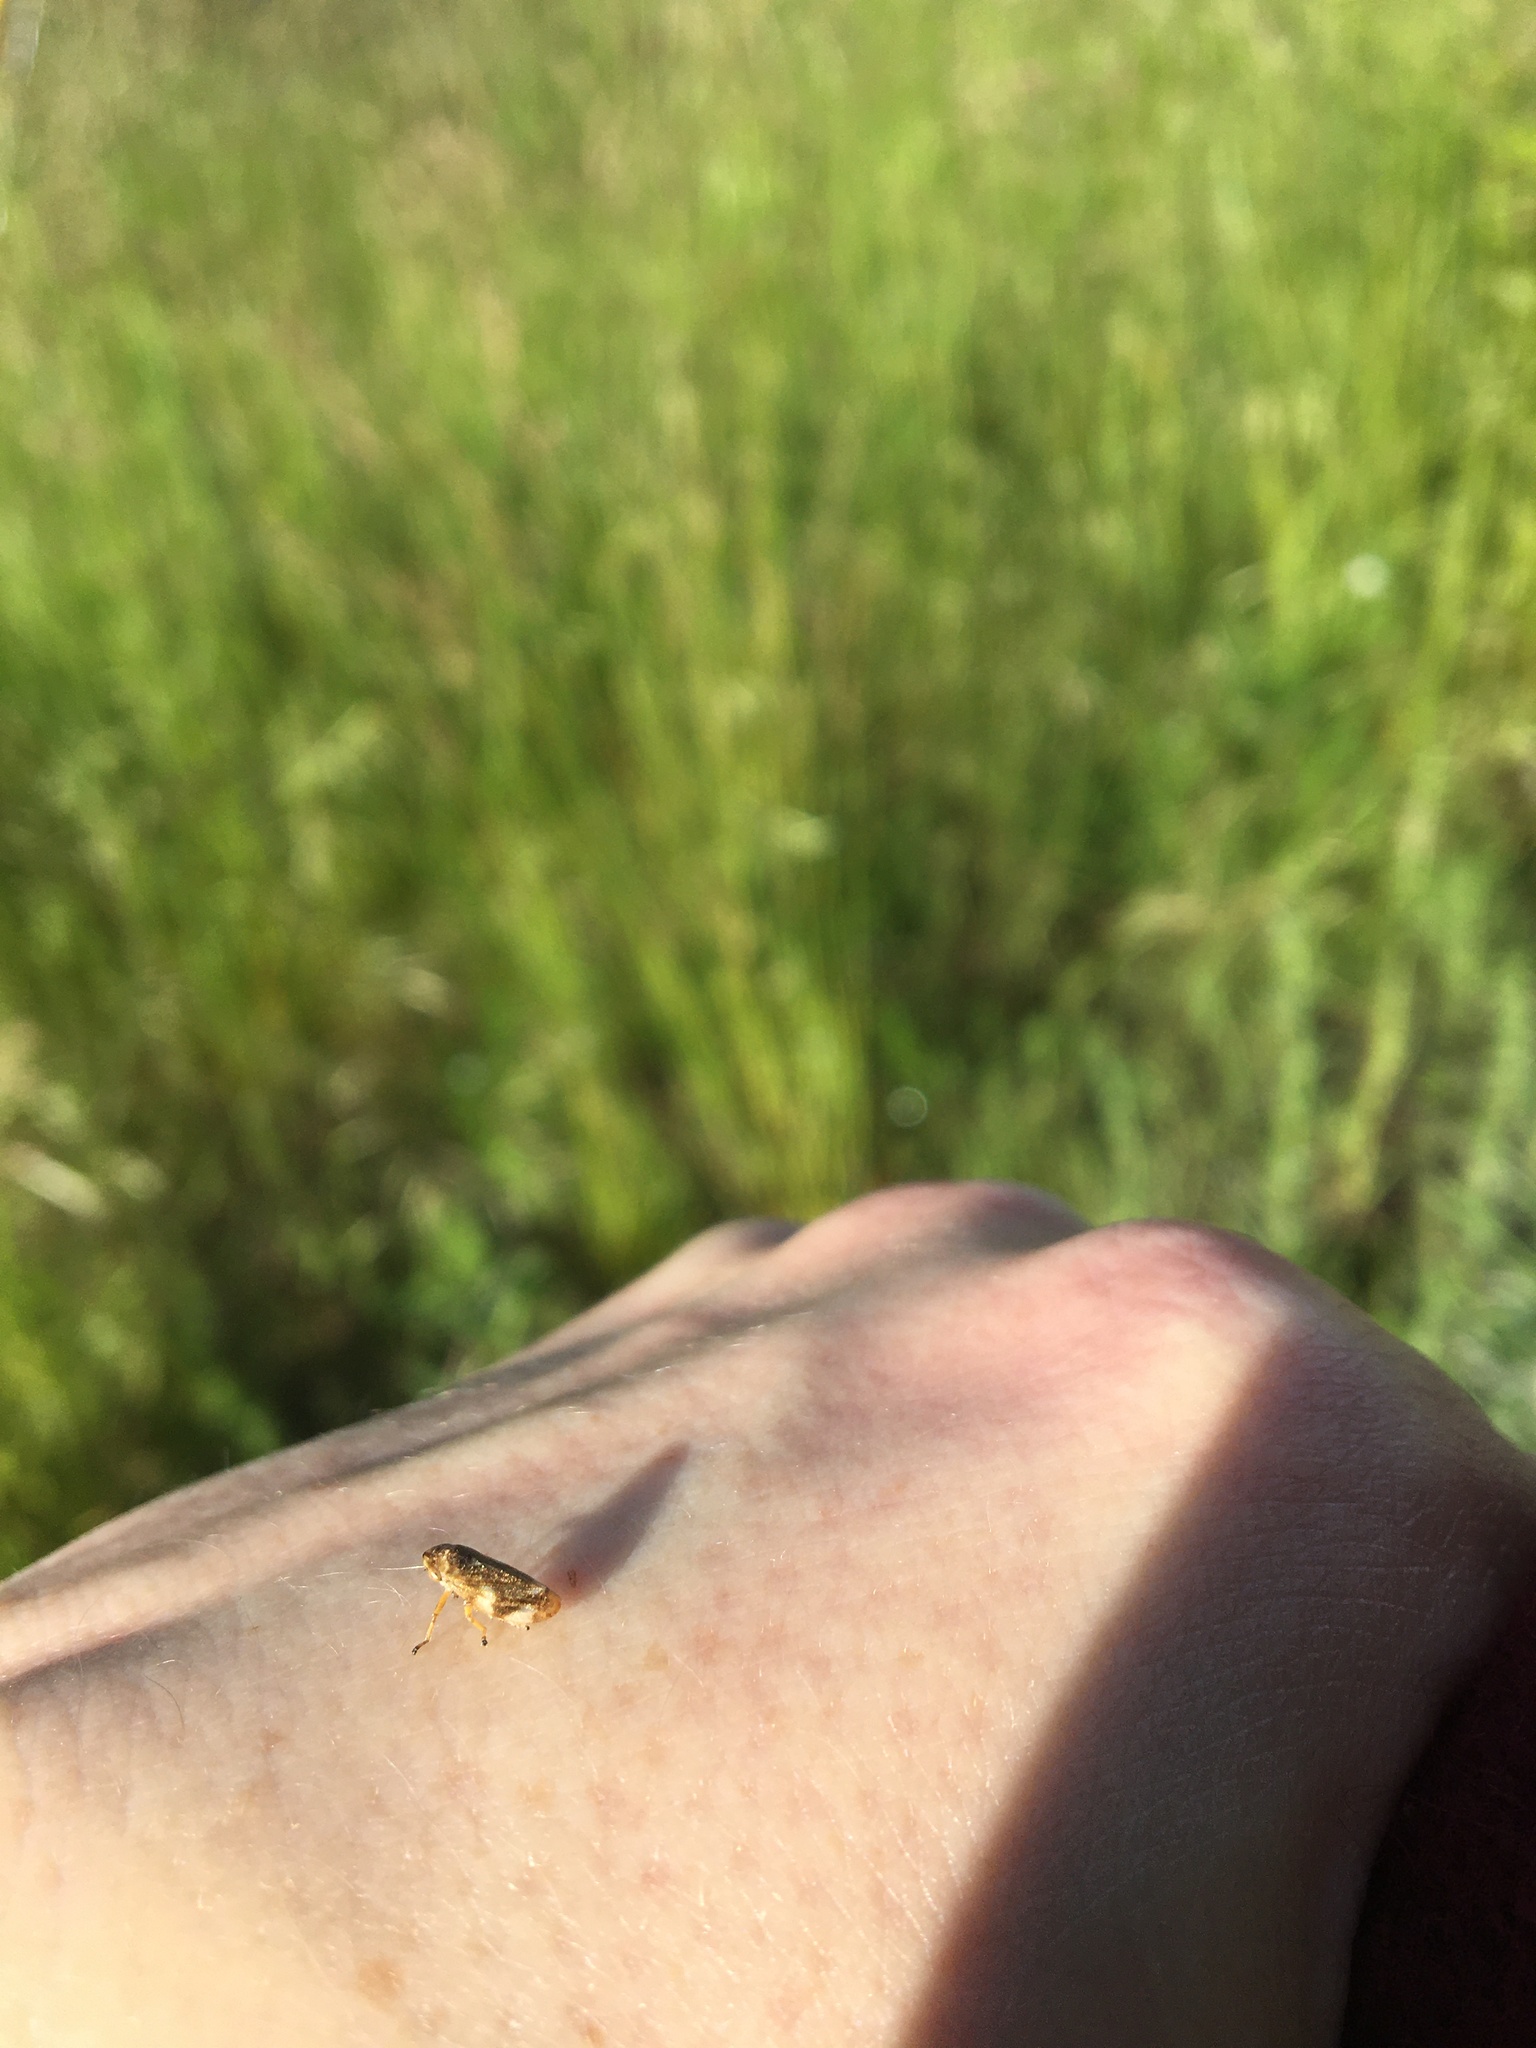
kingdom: Animalia
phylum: Arthropoda
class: Insecta
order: Hemiptera
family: Aphrophoridae
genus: Philaenus
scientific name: Philaenus spumarius
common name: Meadow spittlebug
